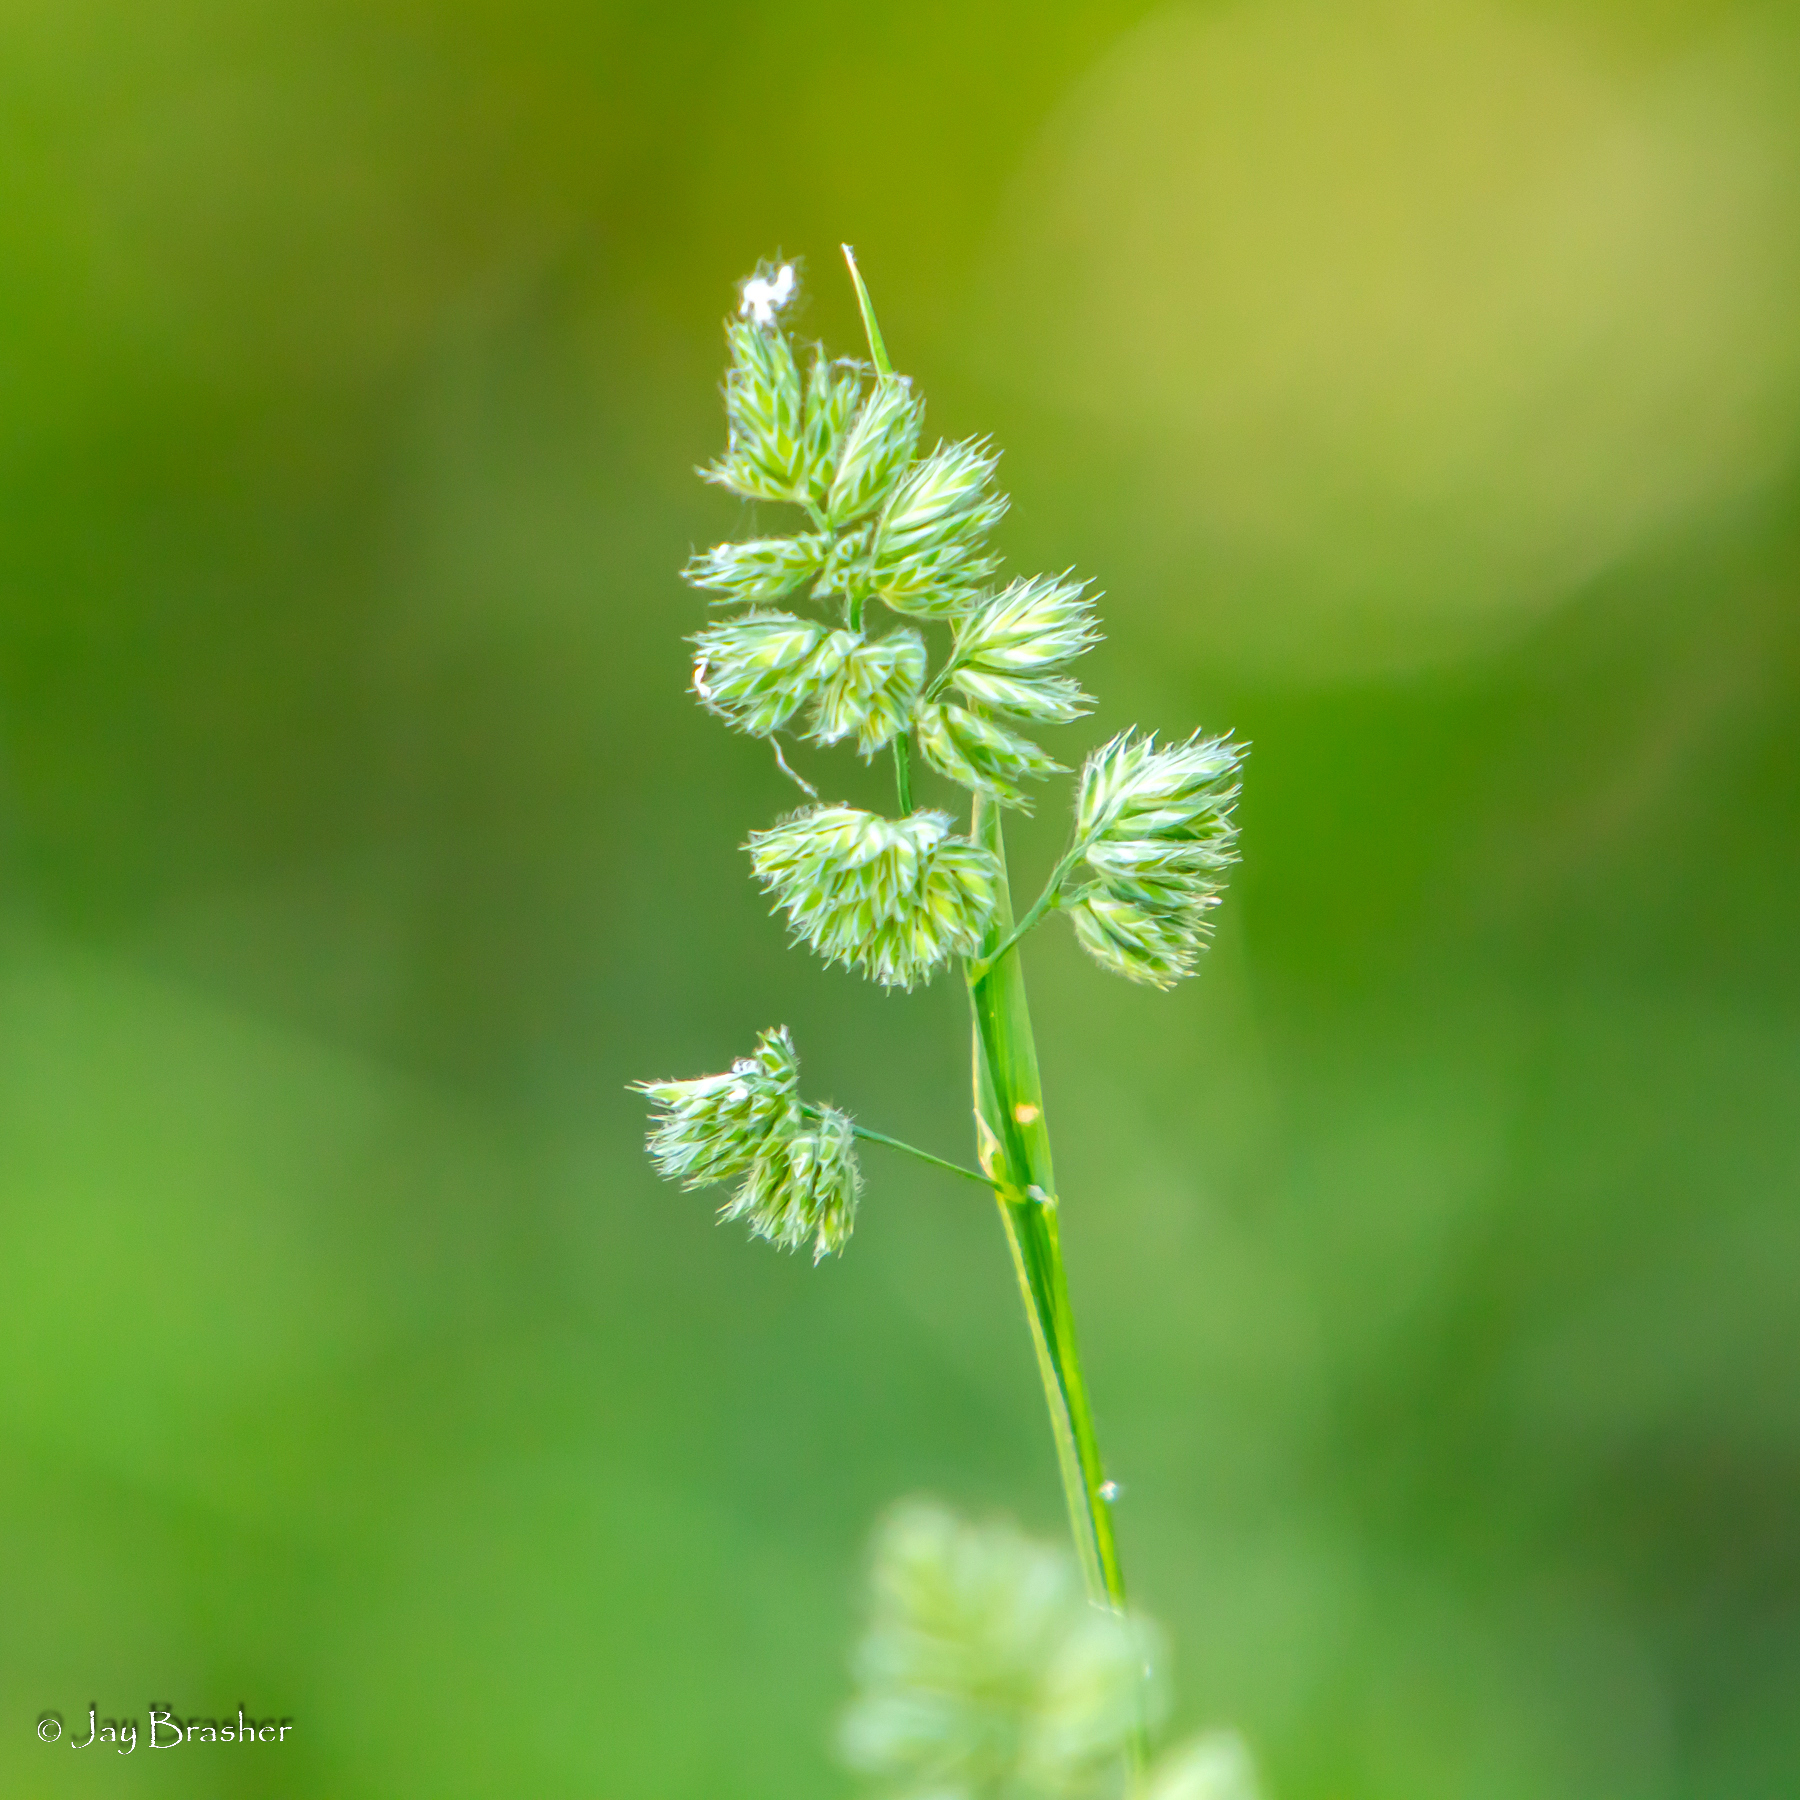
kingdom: Plantae
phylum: Tracheophyta
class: Liliopsida
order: Poales
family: Poaceae
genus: Dactylis
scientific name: Dactylis glomerata
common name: Orchardgrass
